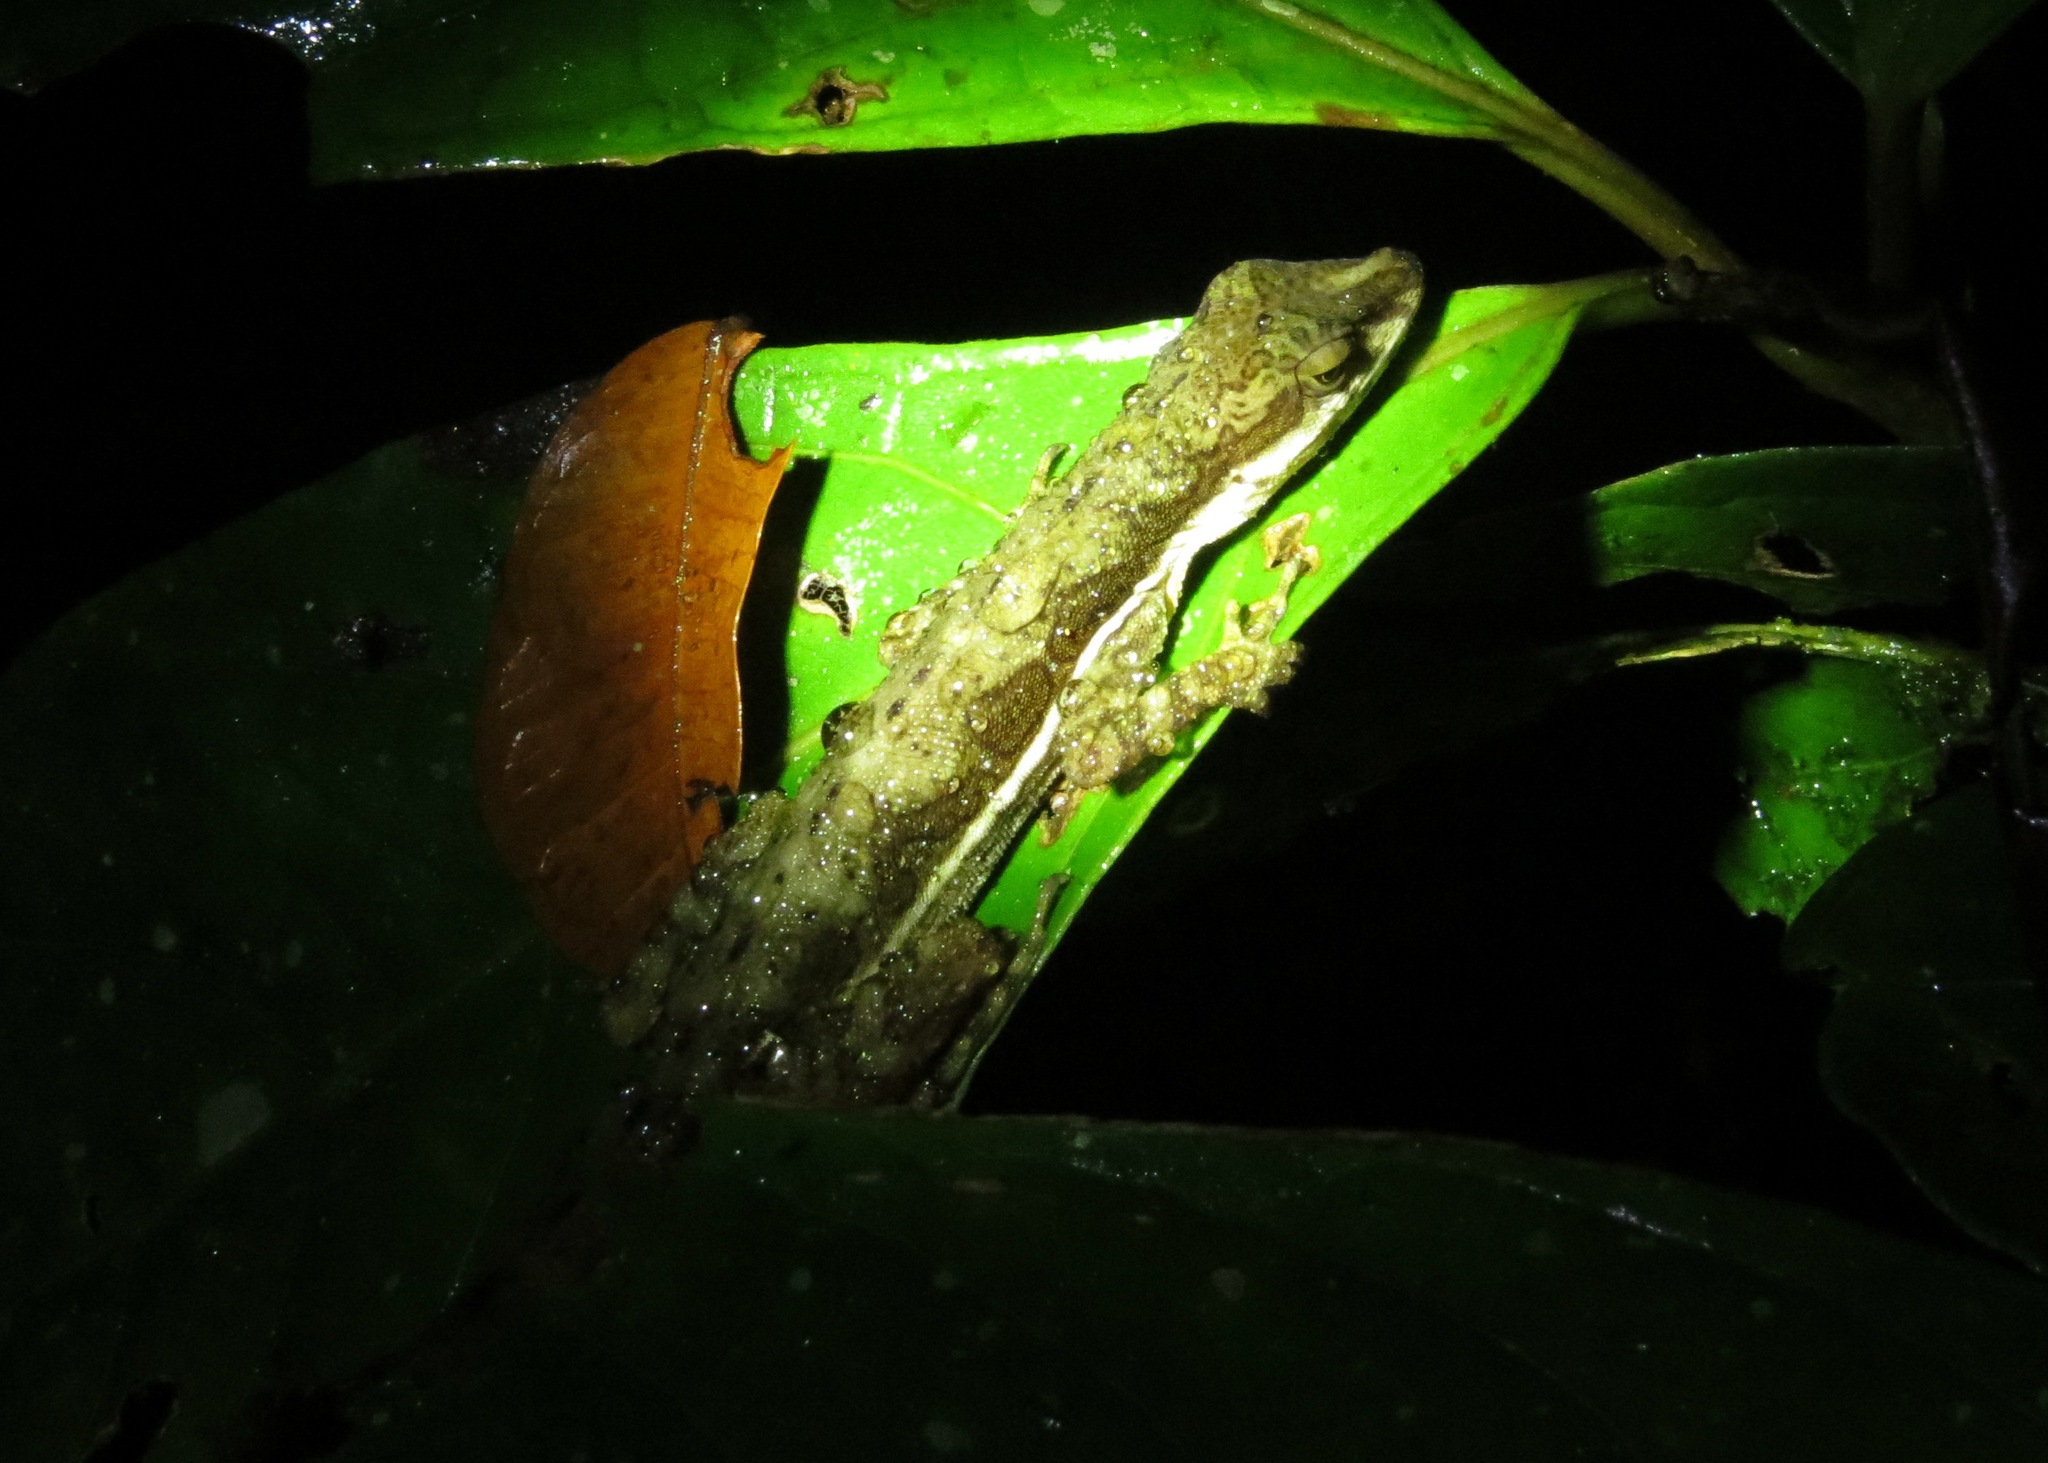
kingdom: Animalia
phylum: Chordata
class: Squamata
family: Dactyloidae
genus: Anolis
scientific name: Anolis oxylophus
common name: Stream anole
